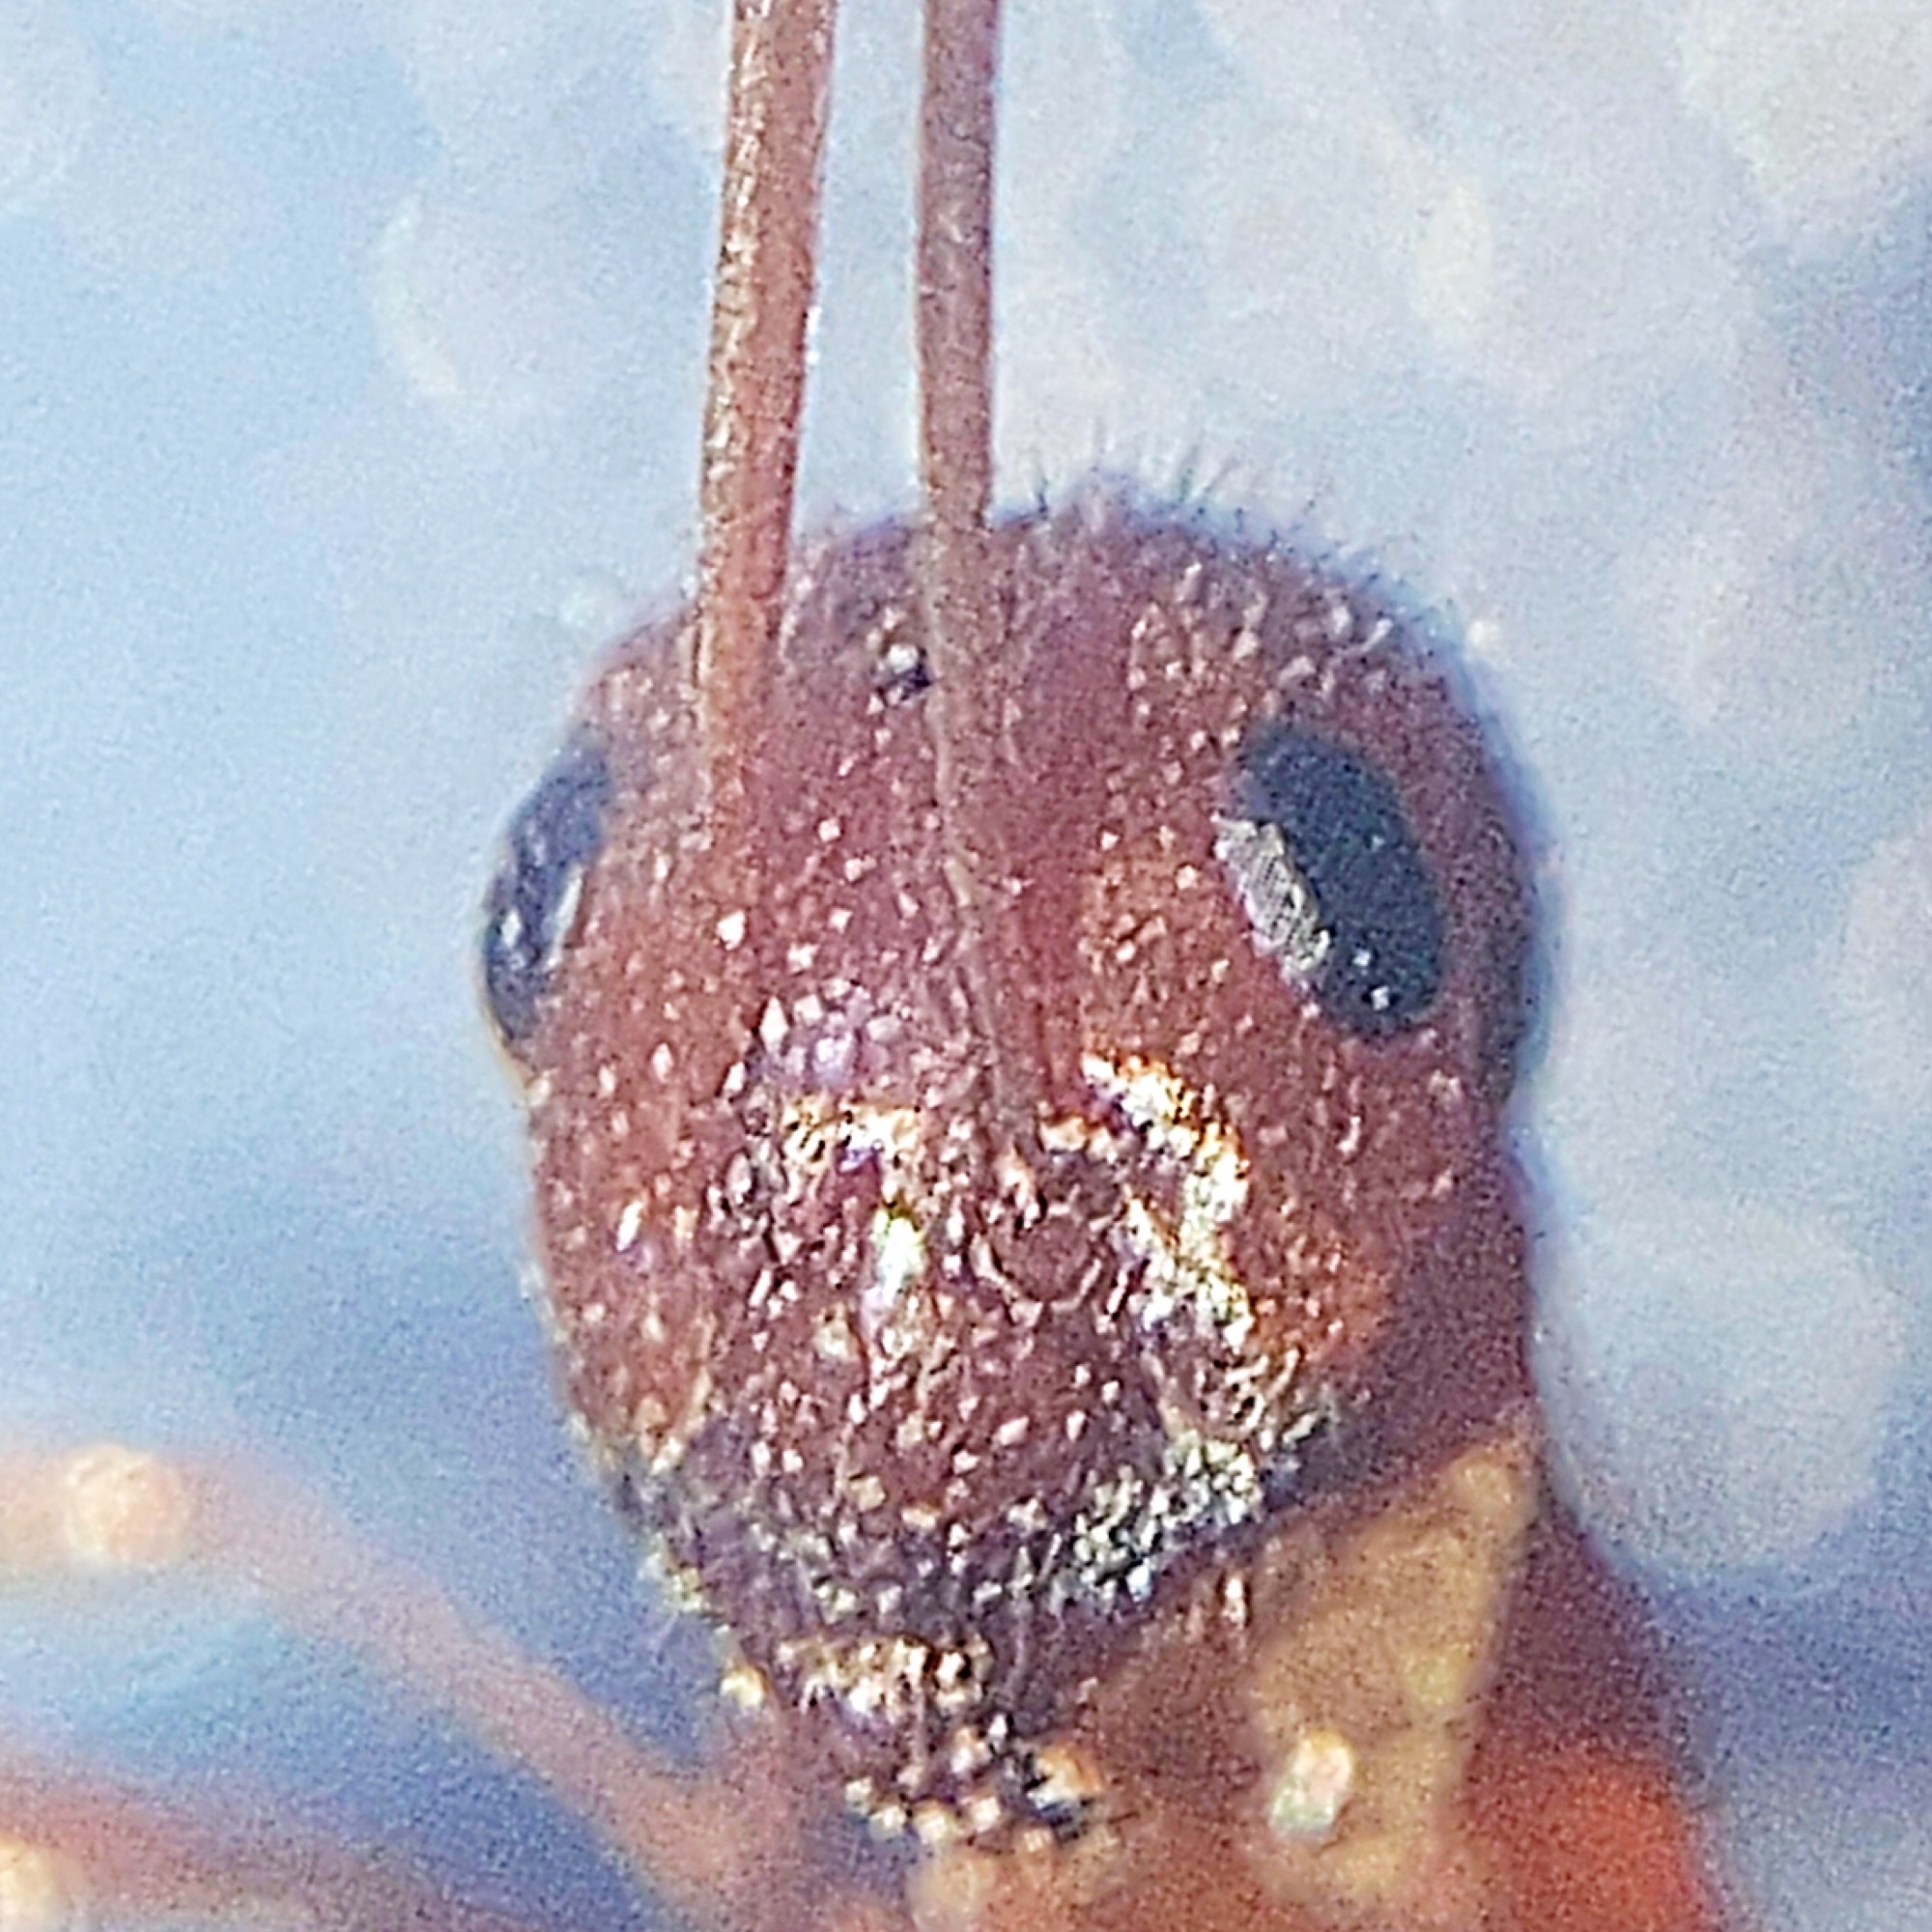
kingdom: Animalia
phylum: Arthropoda
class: Insecta
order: Hymenoptera
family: Formicidae
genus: Formica
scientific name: Formica dolosa
